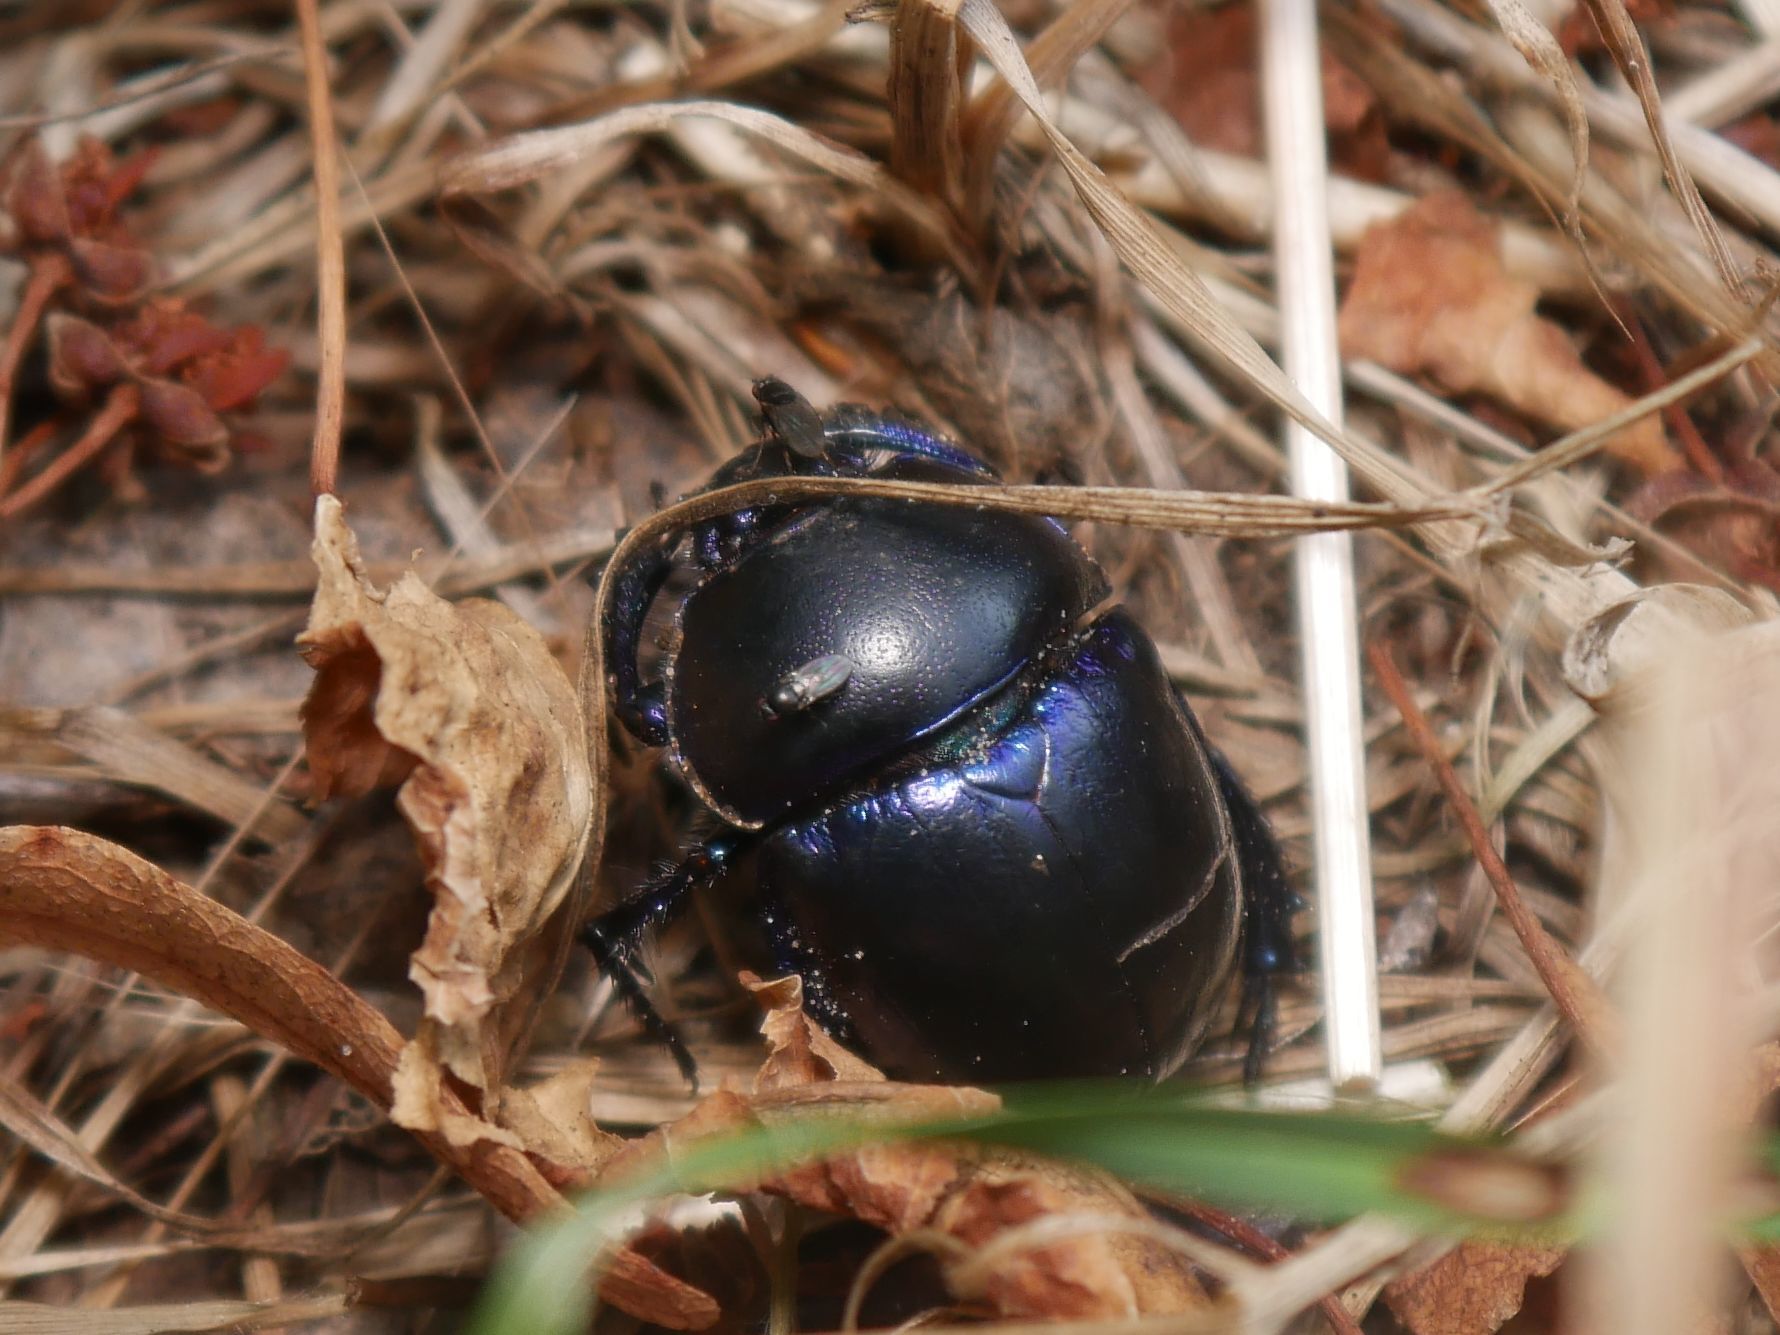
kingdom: Animalia
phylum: Arthropoda
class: Insecta
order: Coleoptera
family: Geotrupidae
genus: Trypocopris
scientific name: Trypocopris vernalis
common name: Spring dumbledor
